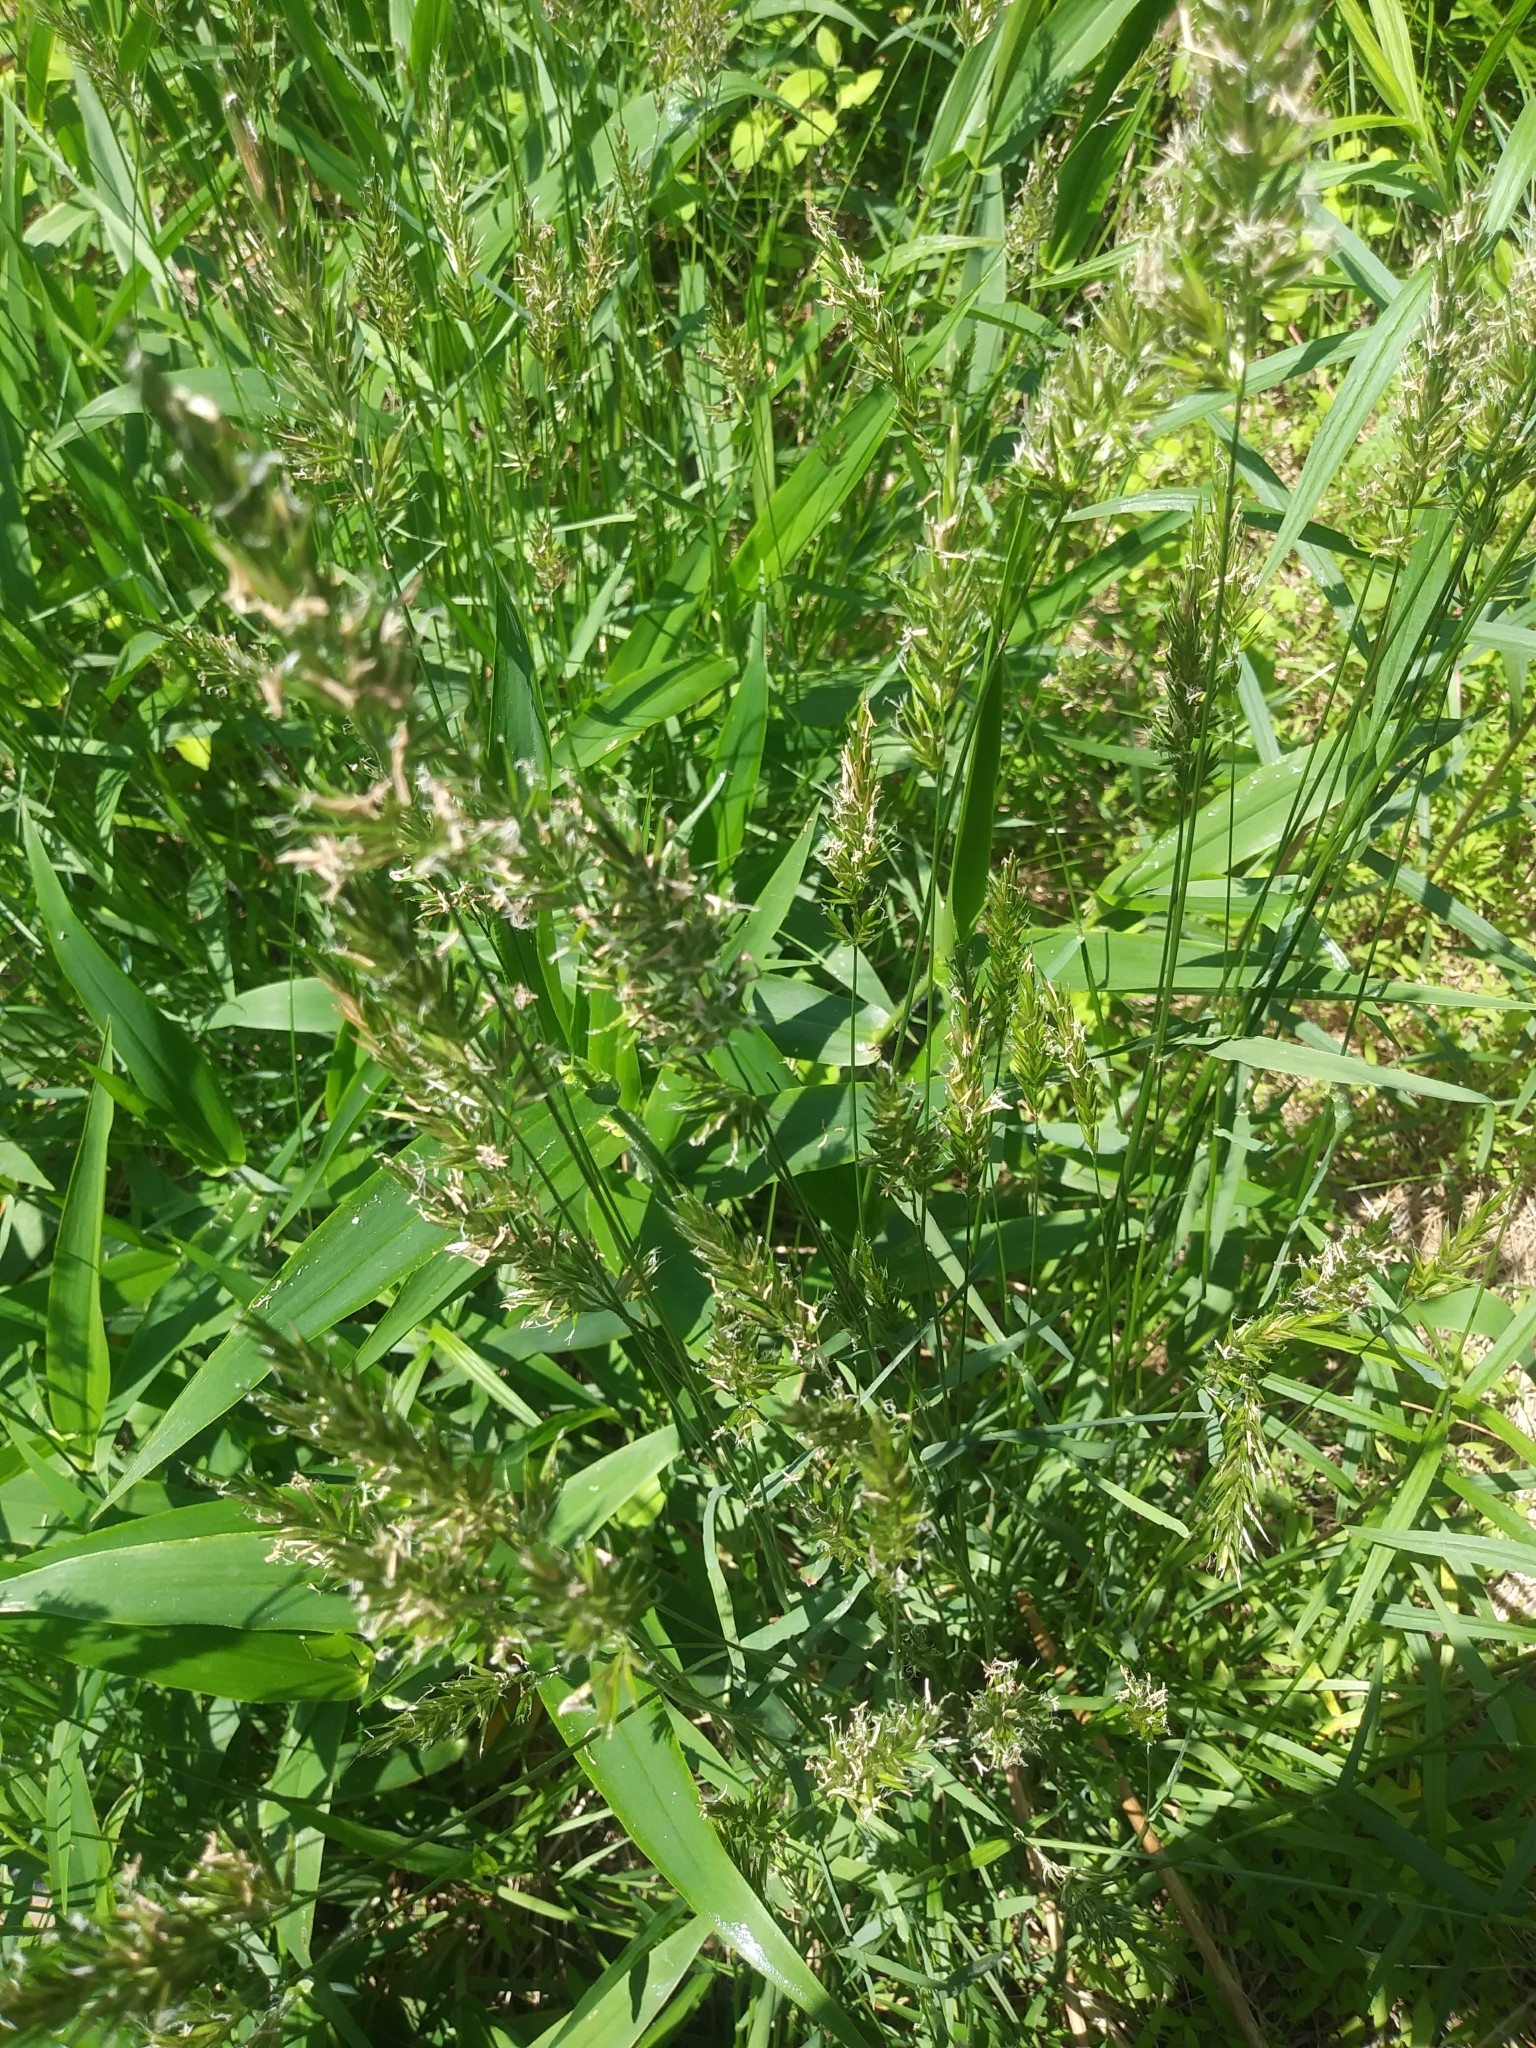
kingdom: Plantae
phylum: Tracheophyta
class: Liliopsida
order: Poales
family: Poaceae
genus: Anthoxanthum
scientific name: Anthoxanthum odoratum
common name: Sweet vernalgrass
